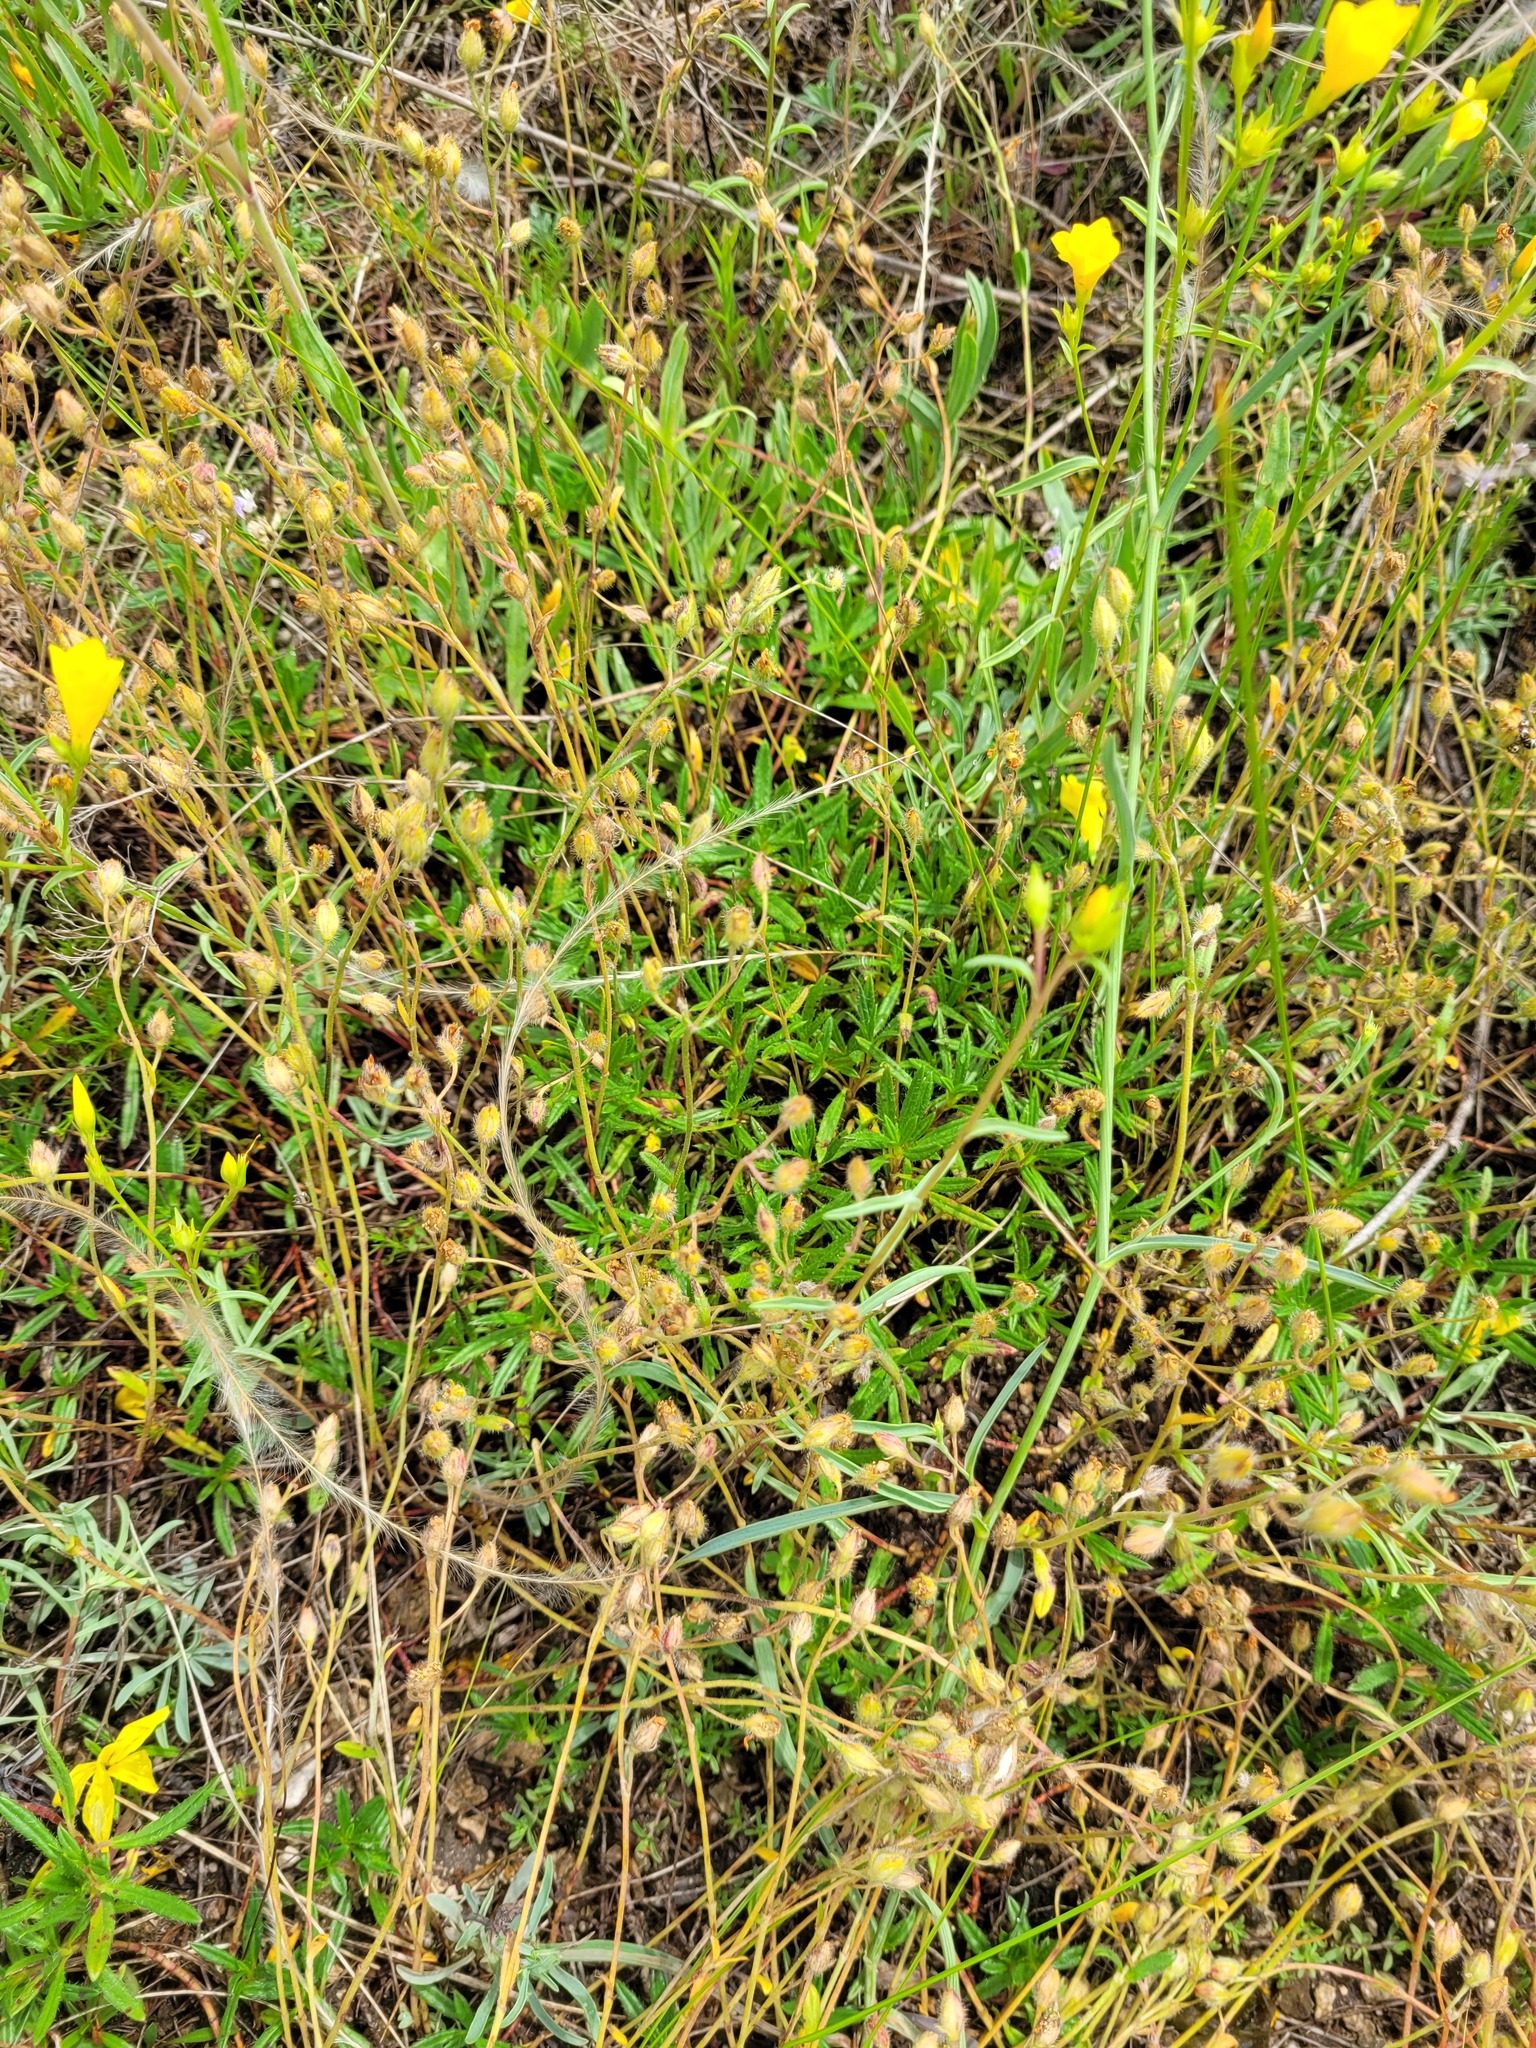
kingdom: Plantae
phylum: Tracheophyta
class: Magnoliopsida
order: Malvales
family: Cistaceae
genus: Helianthemum
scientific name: Helianthemum rupifragum
